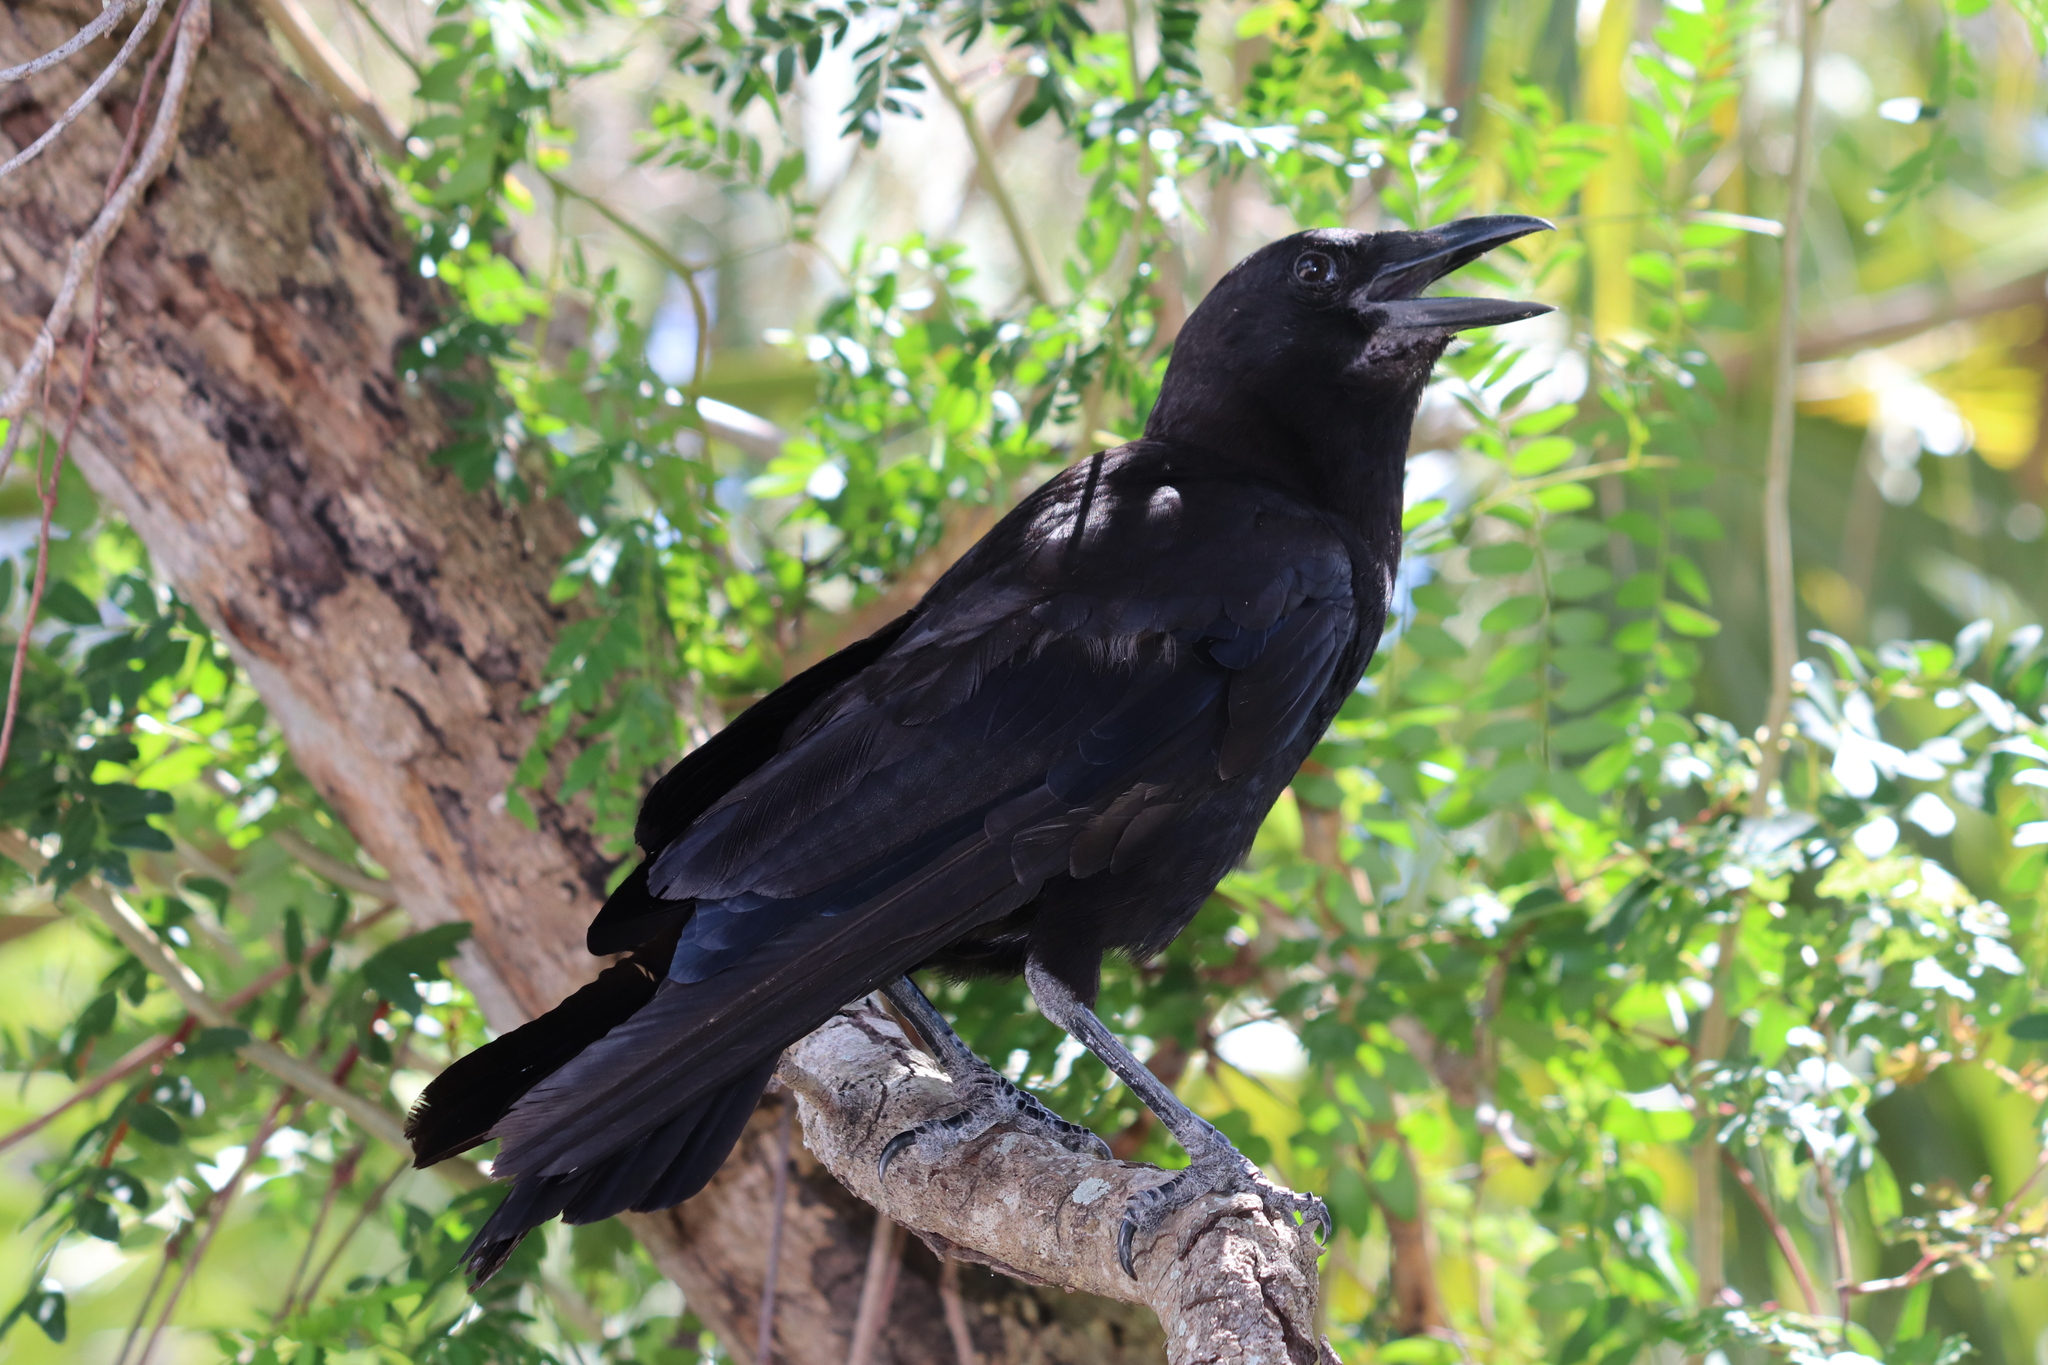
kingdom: Animalia
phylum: Chordata
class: Aves
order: Passeriformes
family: Corvidae
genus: Corvus
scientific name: Corvus
